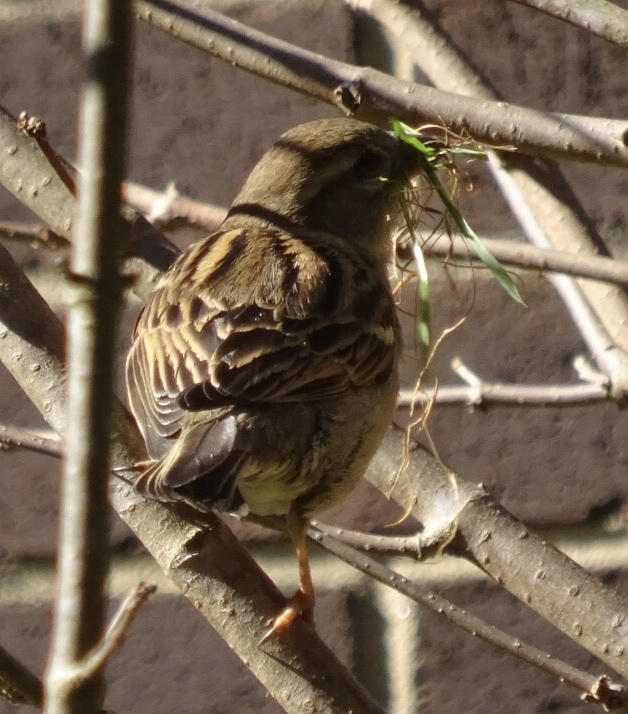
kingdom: Animalia
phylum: Chordata
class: Aves
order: Passeriformes
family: Passeridae
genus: Passer
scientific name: Passer domesticus
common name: House sparrow
